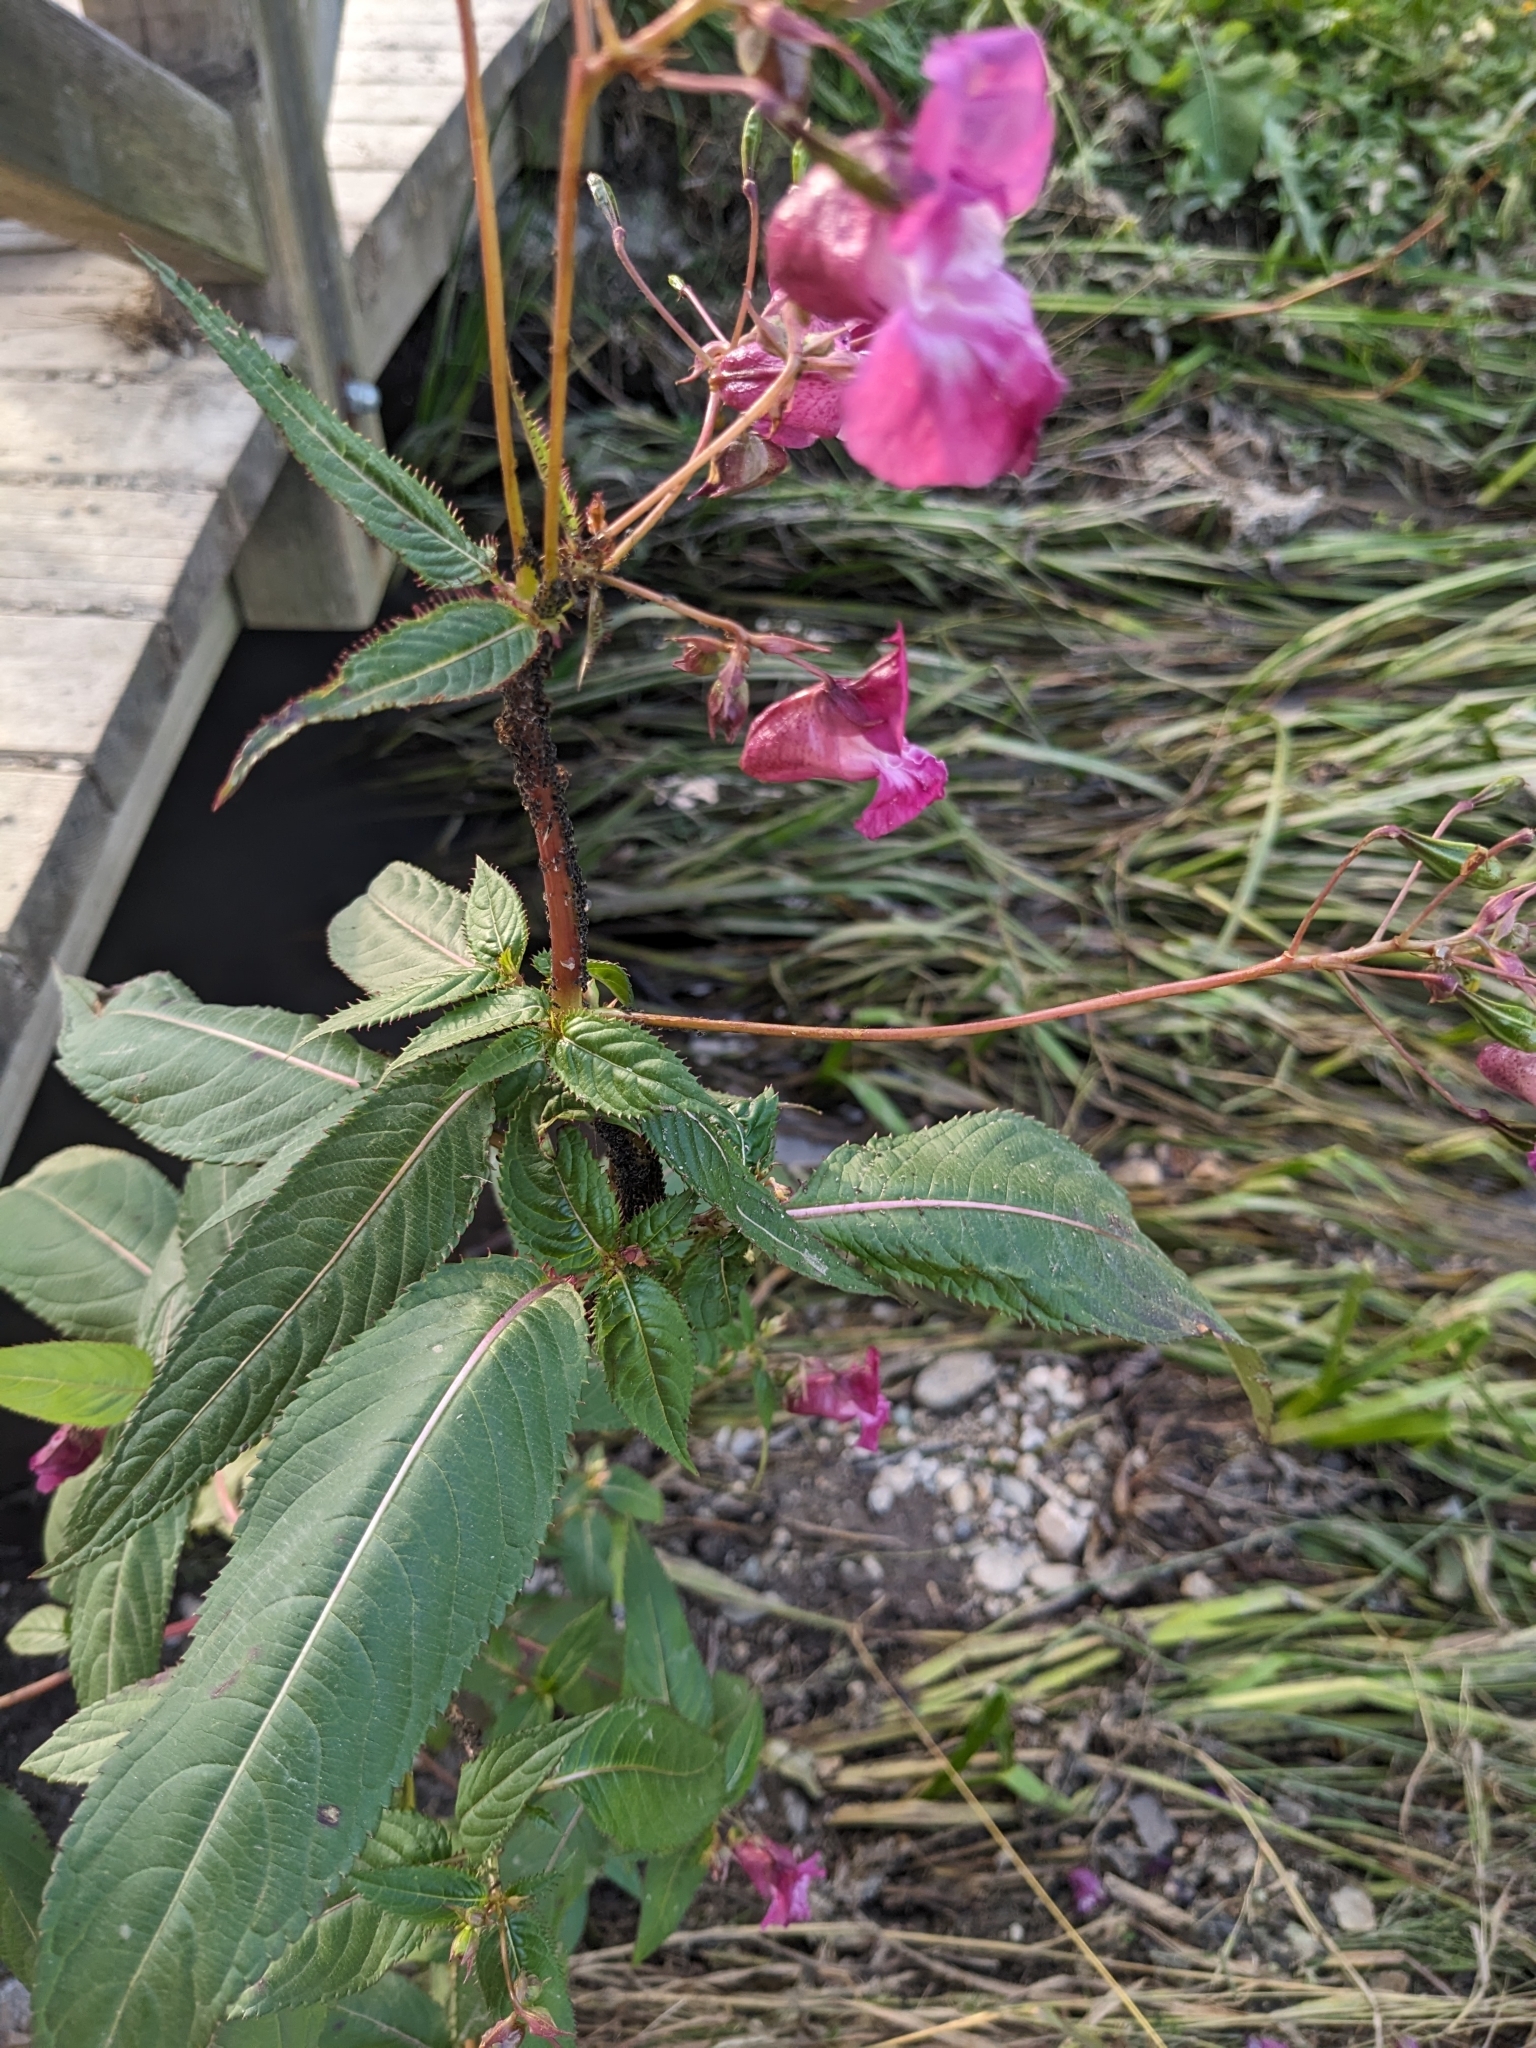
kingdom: Plantae
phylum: Tracheophyta
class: Magnoliopsida
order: Ericales
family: Balsaminaceae
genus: Impatiens
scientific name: Impatiens glandulifera
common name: Himalayan balsam
